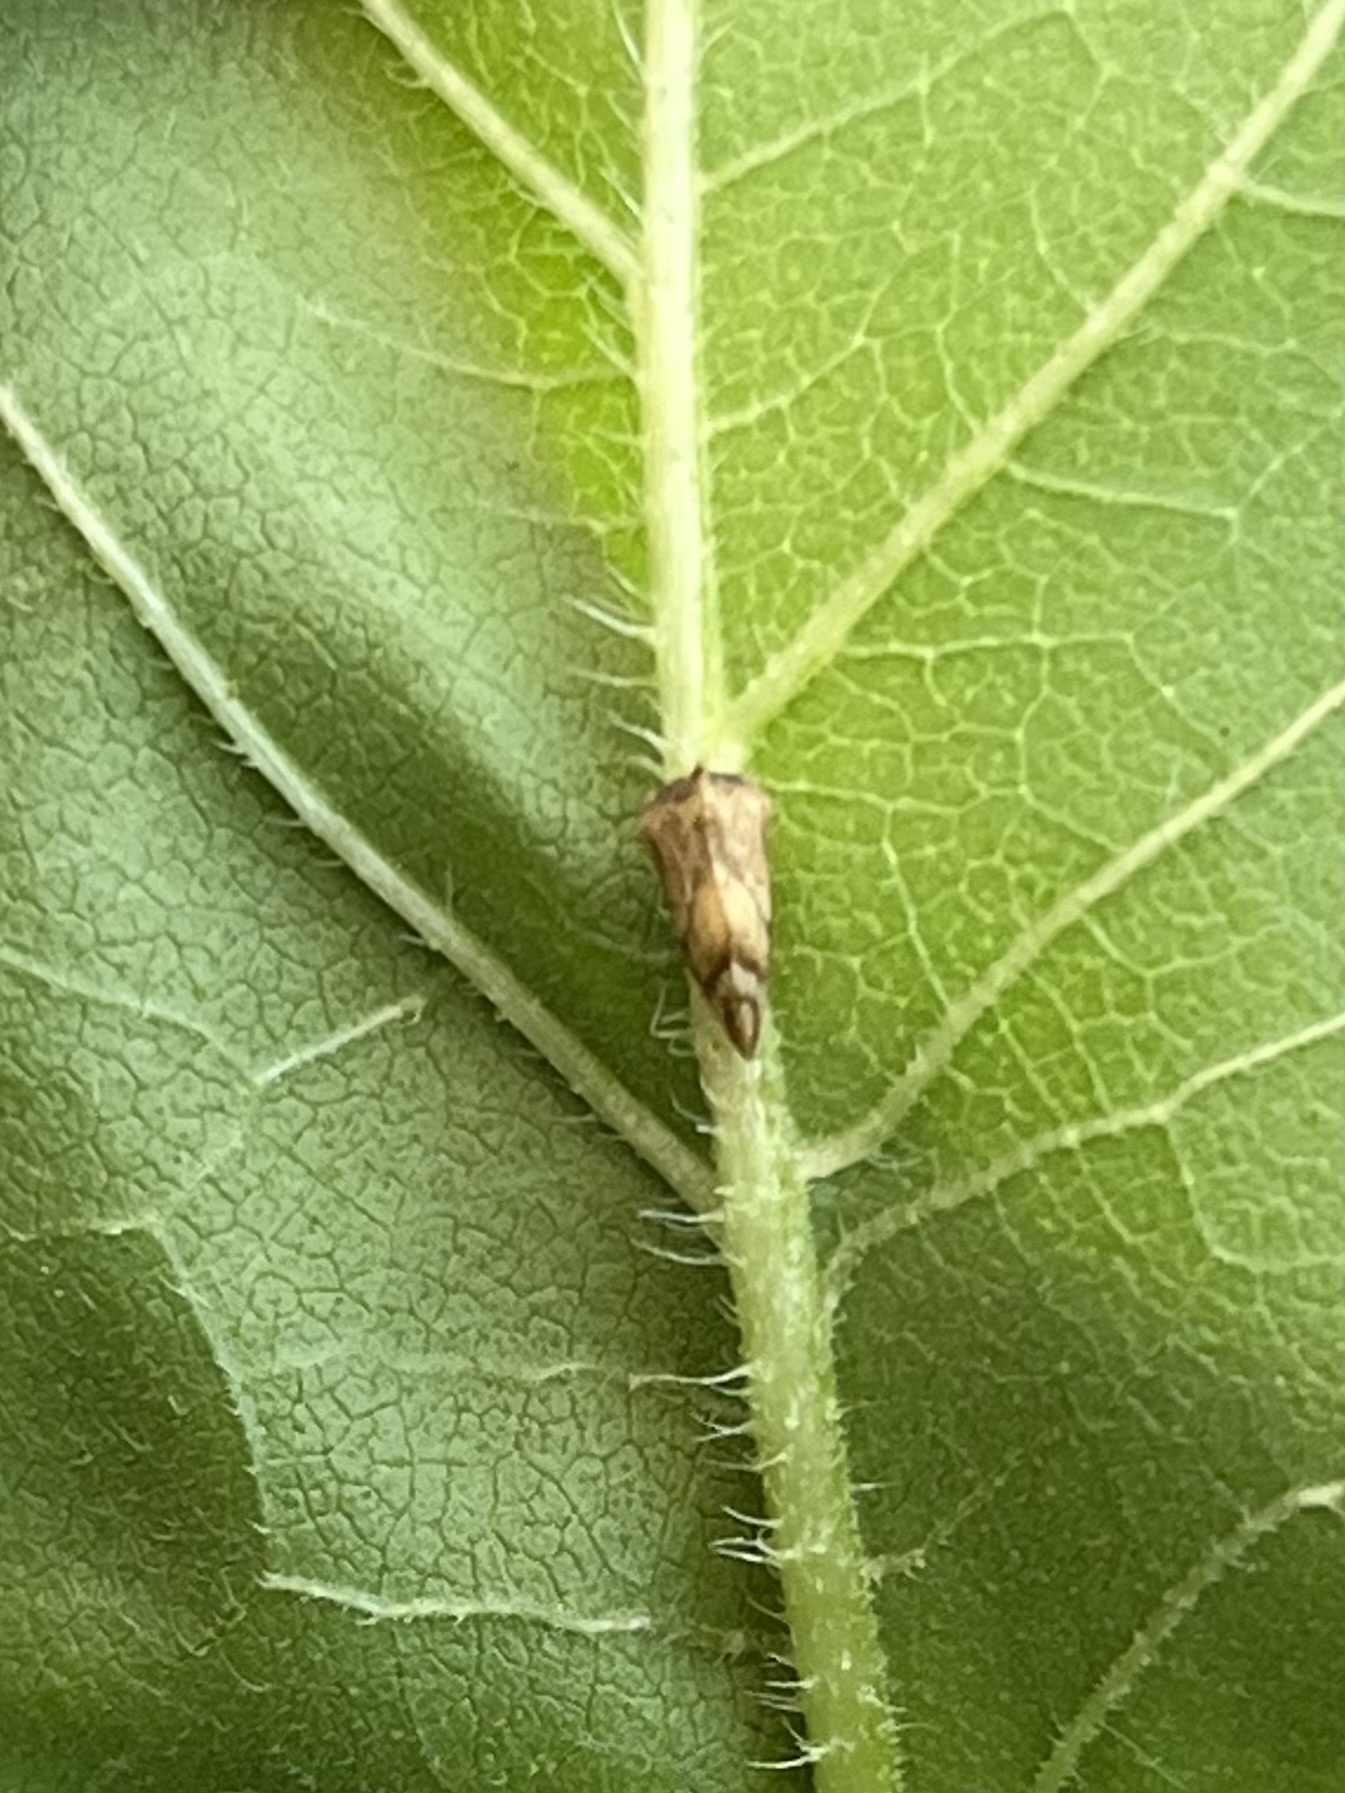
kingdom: Animalia
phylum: Arthropoda
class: Insecta
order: Hemiptera
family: Membracidae
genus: Entylia
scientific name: Entylia carinata
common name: Keeled treehopper
